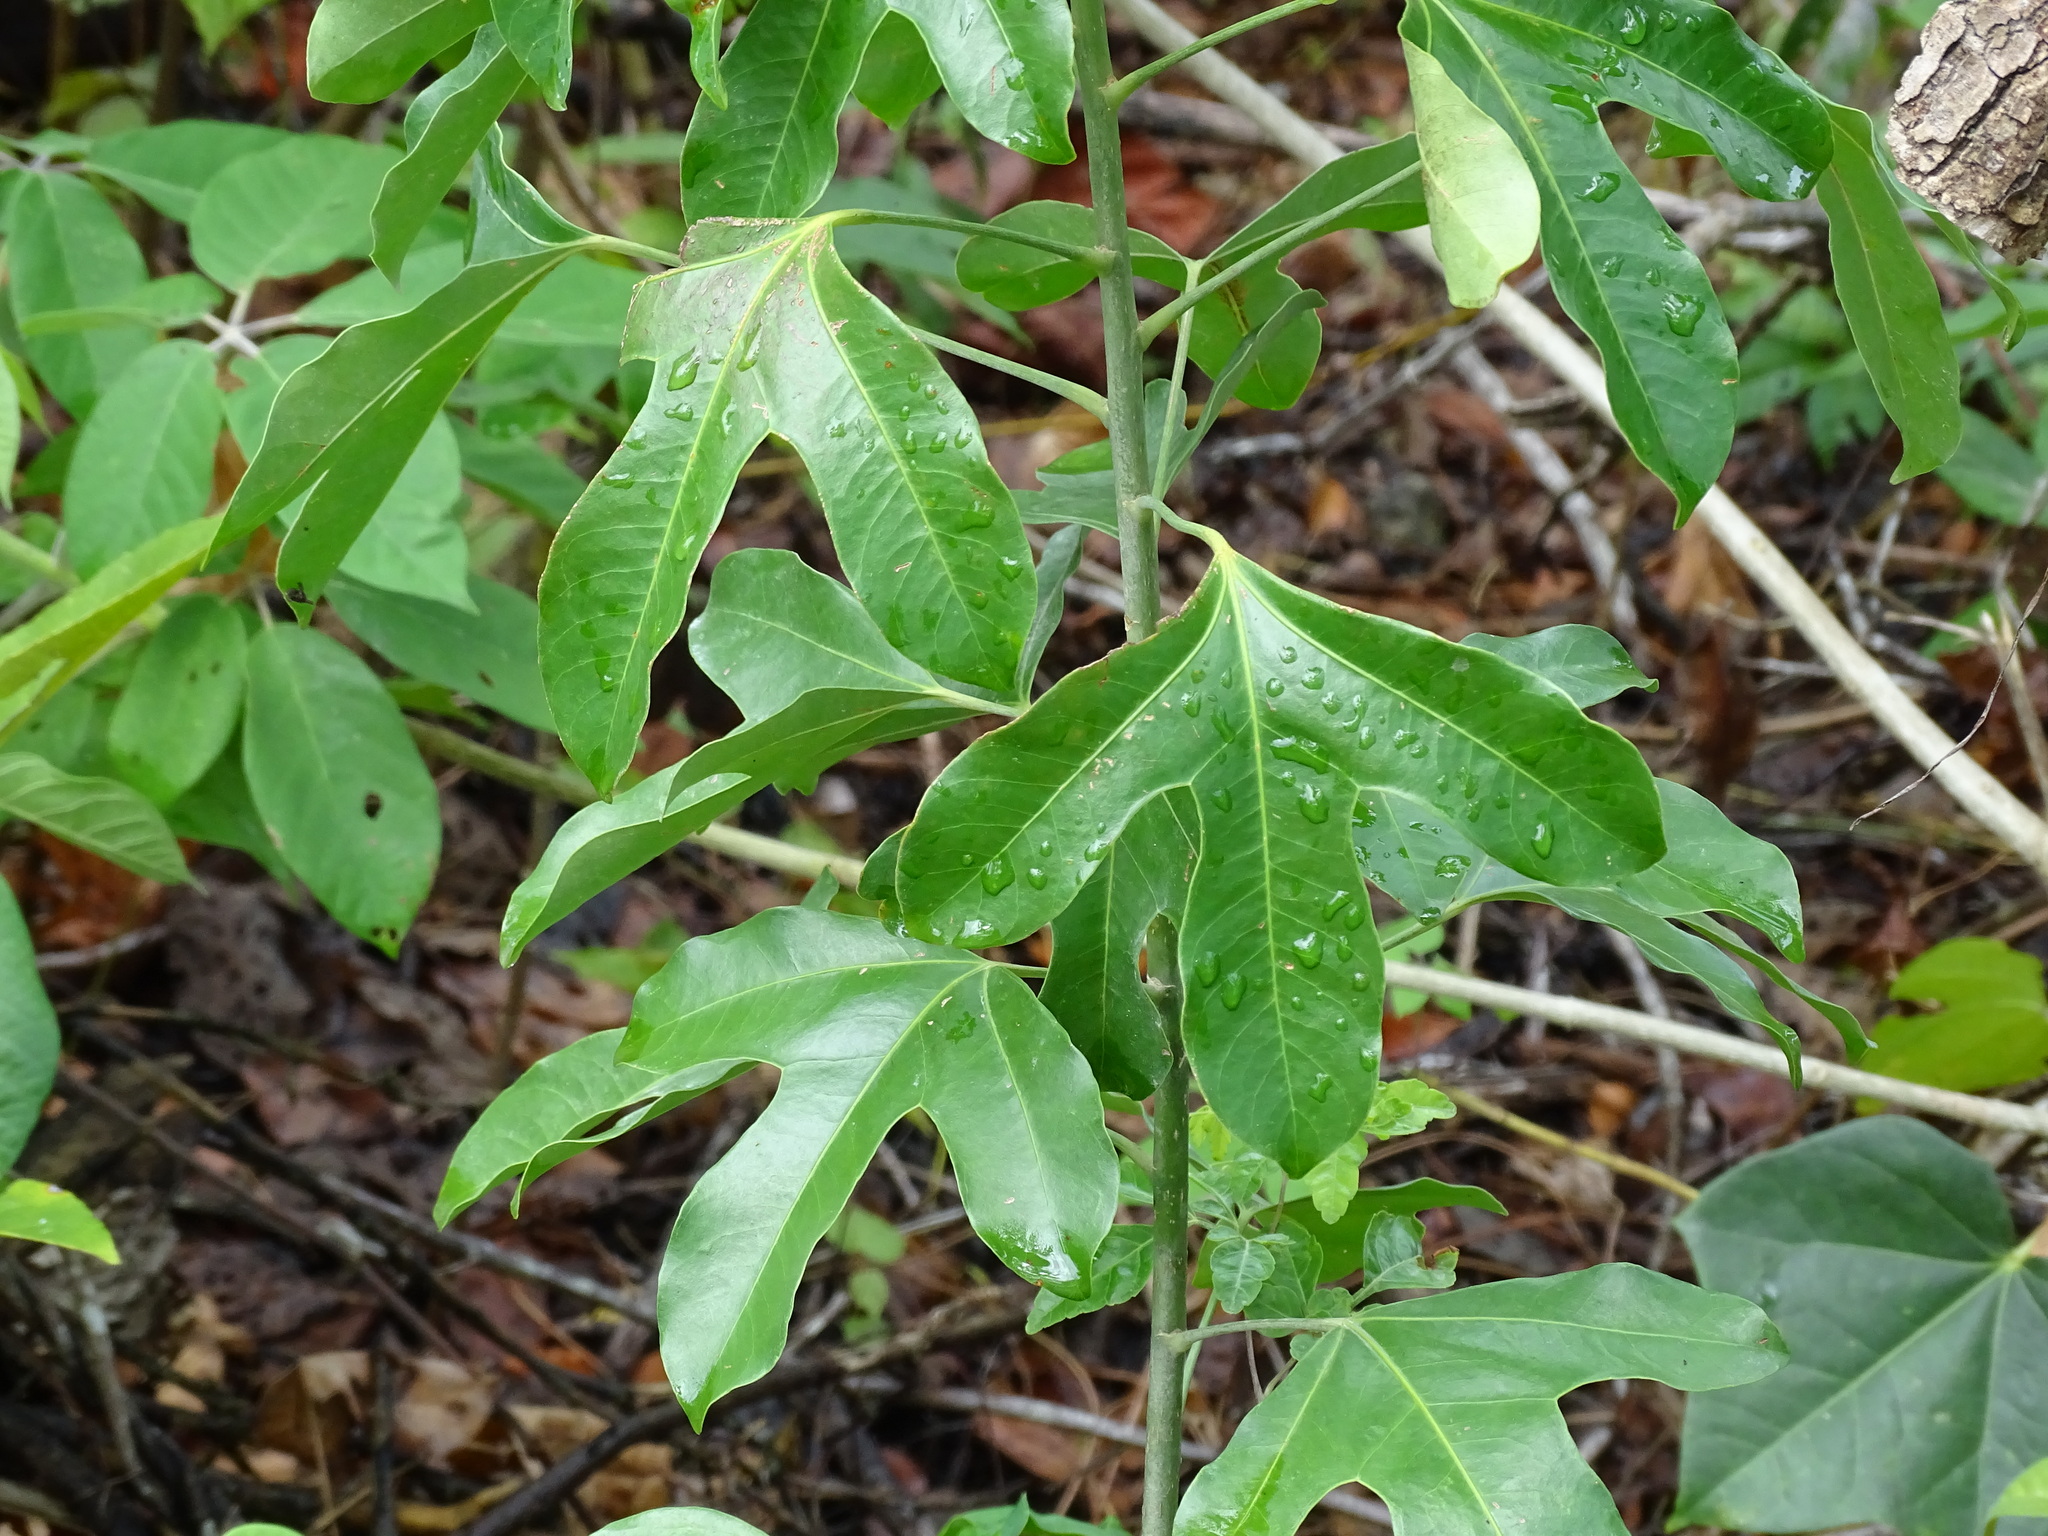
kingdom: Plantae
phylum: Tracheophyta
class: Magnoliopsida
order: Apiales
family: Araliaceae
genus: Dendropanax
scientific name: Dendropanax arboreus
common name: Potato-wood
